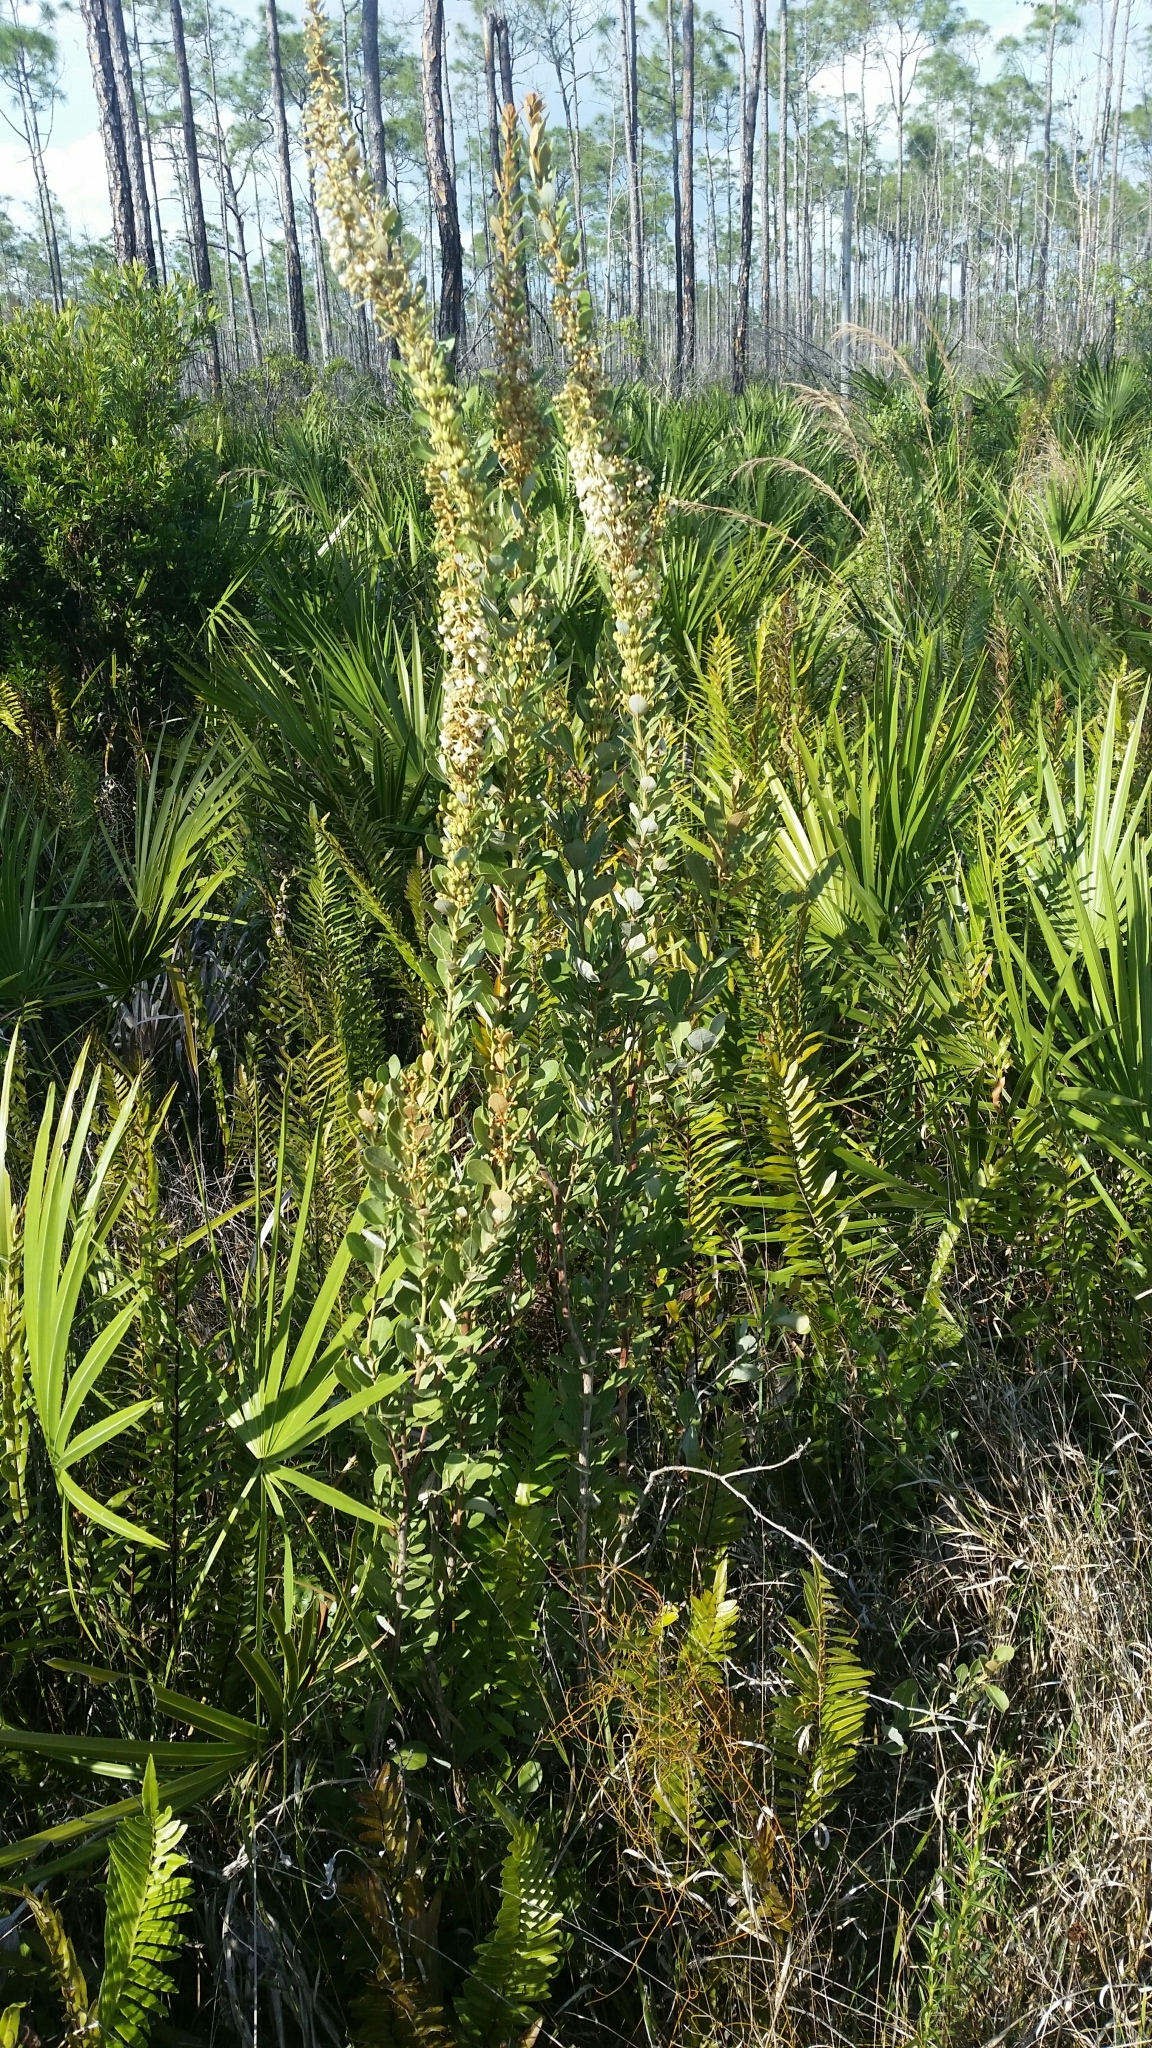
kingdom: Plantae
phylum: Tracheophyta
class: Magnoliopsida
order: Ericales
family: Ericaceae
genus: Lyonia
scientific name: Lyonia fruticosa
